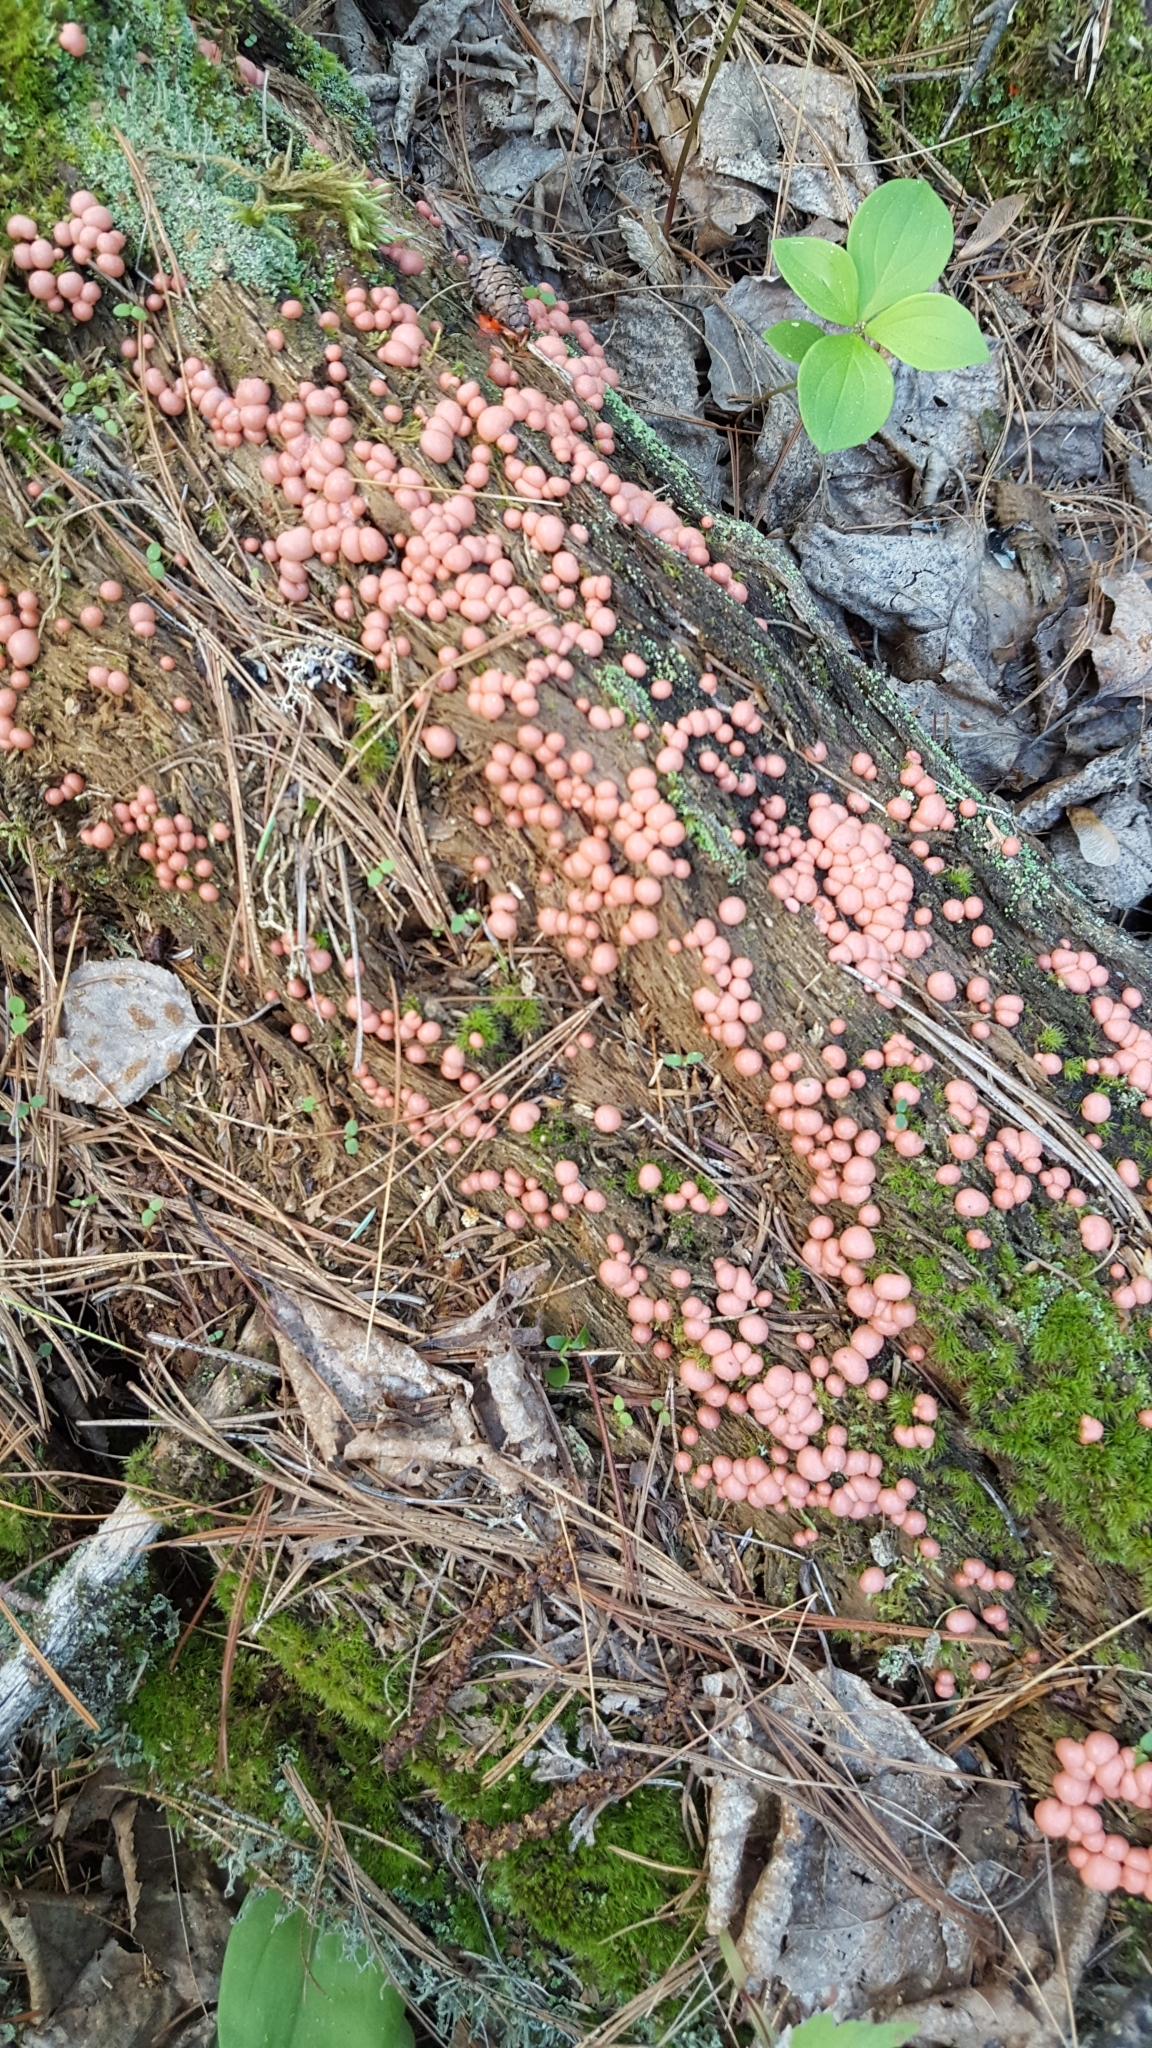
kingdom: Protozoa
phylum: Mycetozoa
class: Myxomycetes
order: Cribrariales
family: Tubiferaceae
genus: Lycogala
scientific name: Lycogala epidendrum
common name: Wolf's milk
